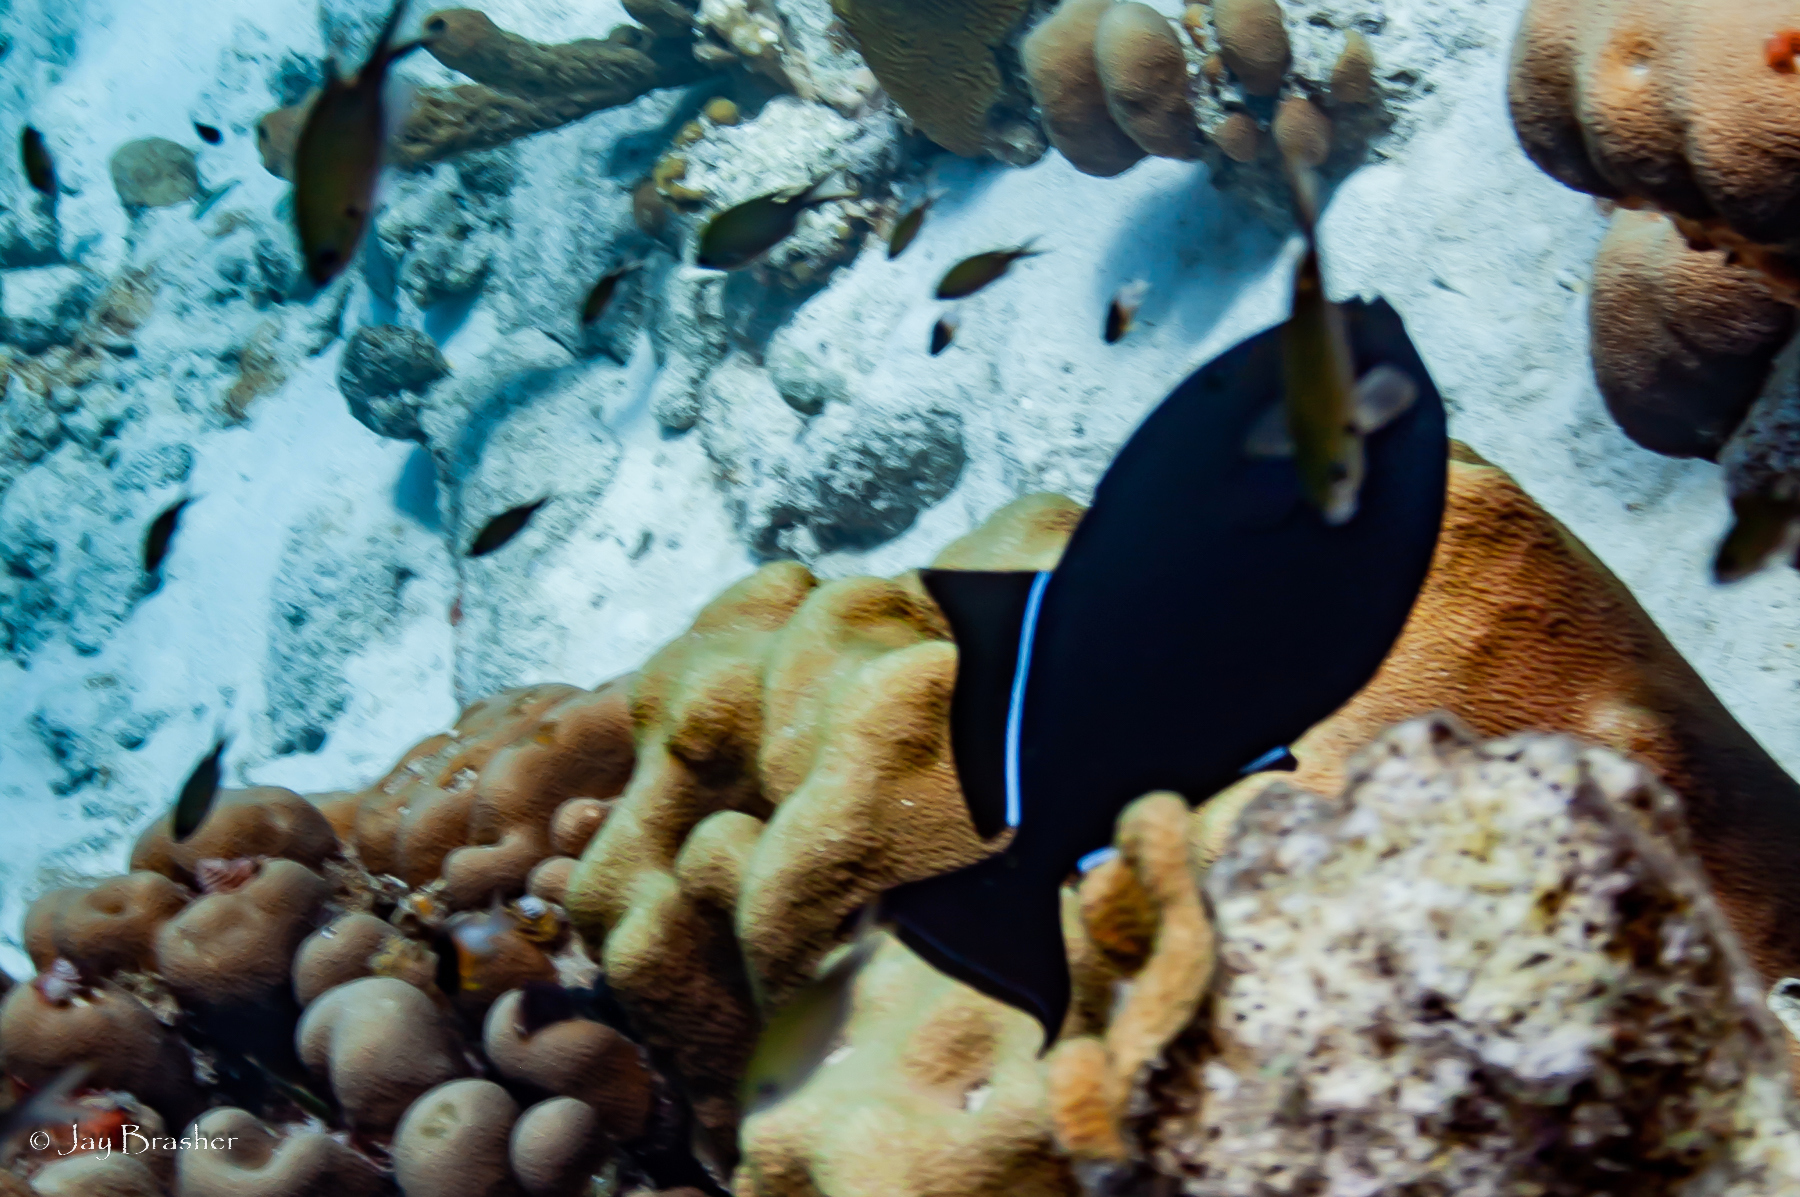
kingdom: Animalia
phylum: Chordata
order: Tetraodontiformes
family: Balistidae
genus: Melichthys
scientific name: Melichthys niger
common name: Black durgon
